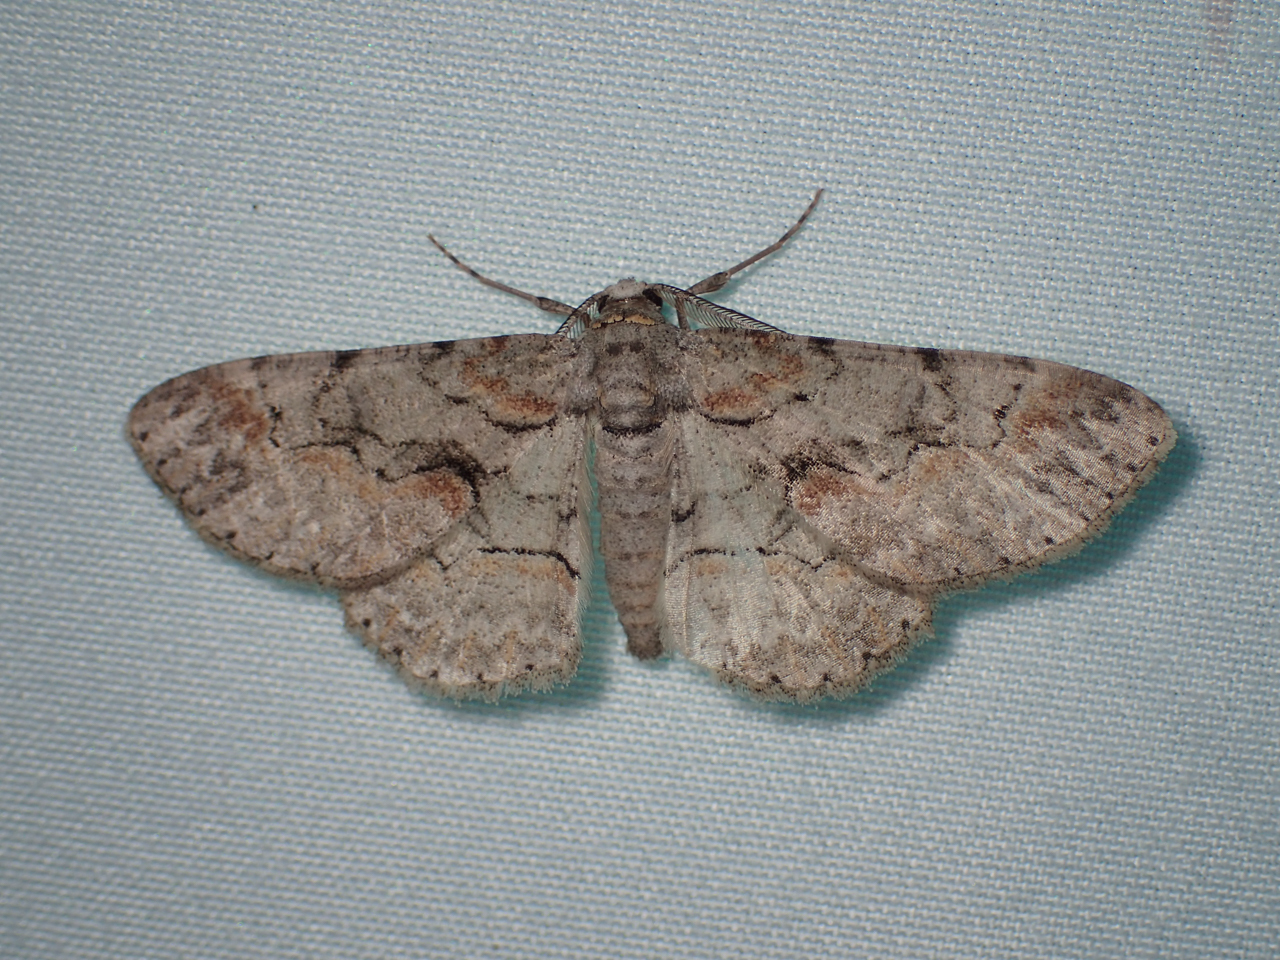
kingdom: Animalia
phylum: Arthropoda
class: Insecta
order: Lepidoptera
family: Geometridae
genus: Iridopsis
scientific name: Iridopsis defectaria
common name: Brown-shaded gray
